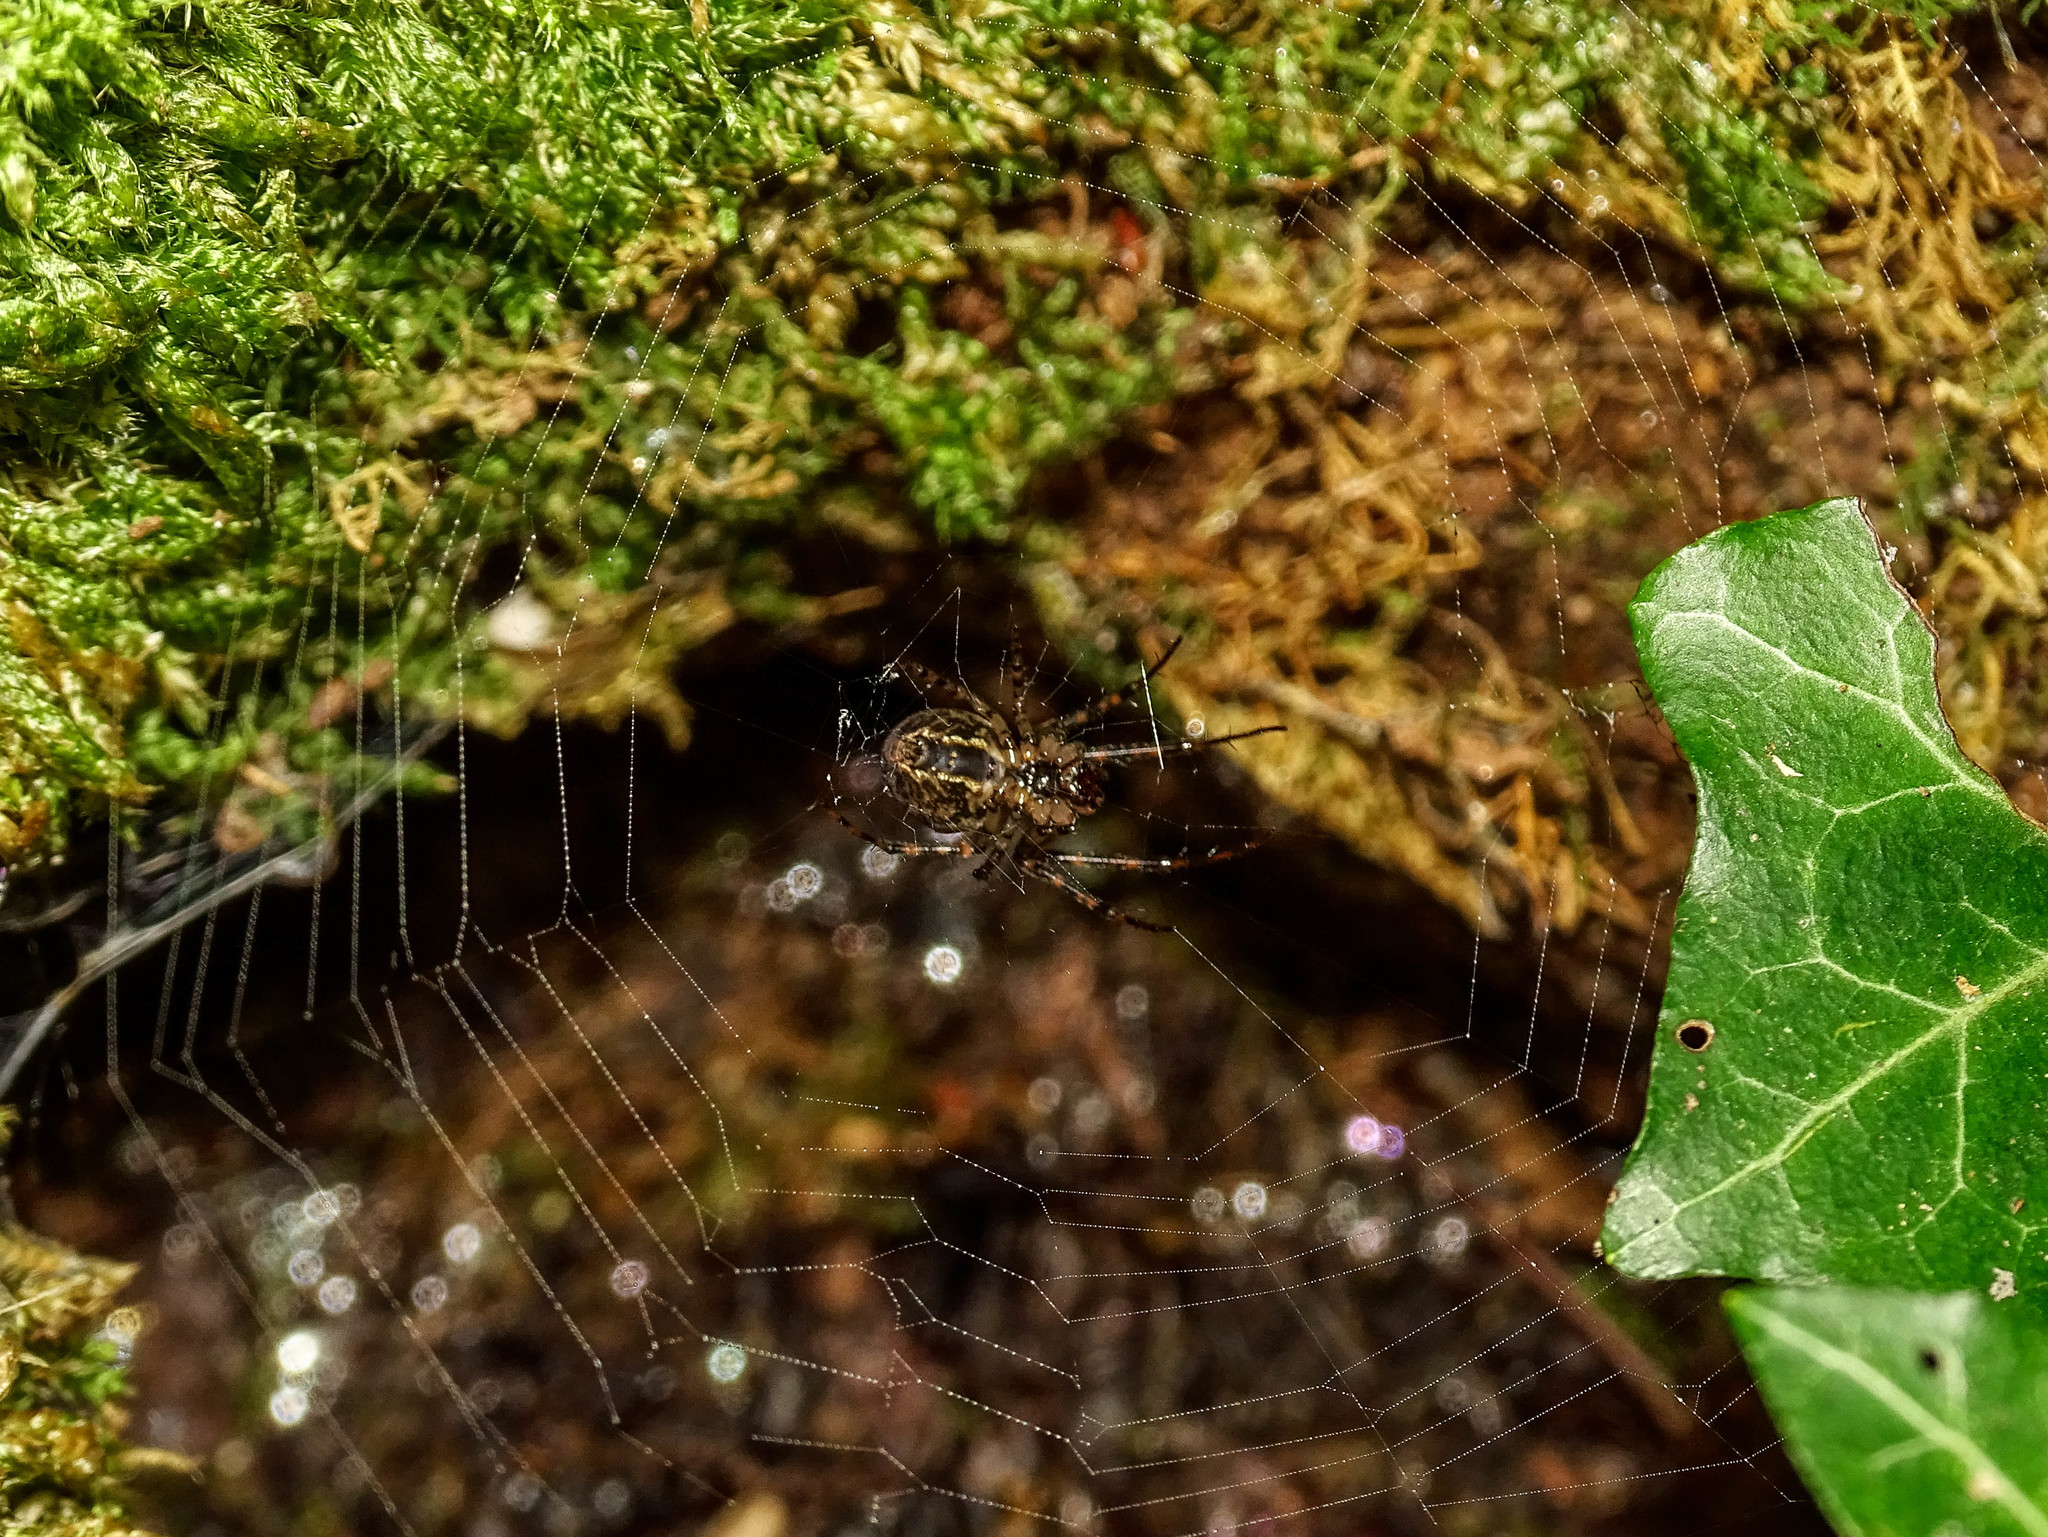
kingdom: Animalia
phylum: Arthropoda
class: Arachnida
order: Araneae
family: Tetragnathidae
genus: Metellina
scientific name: Metellina merianae
